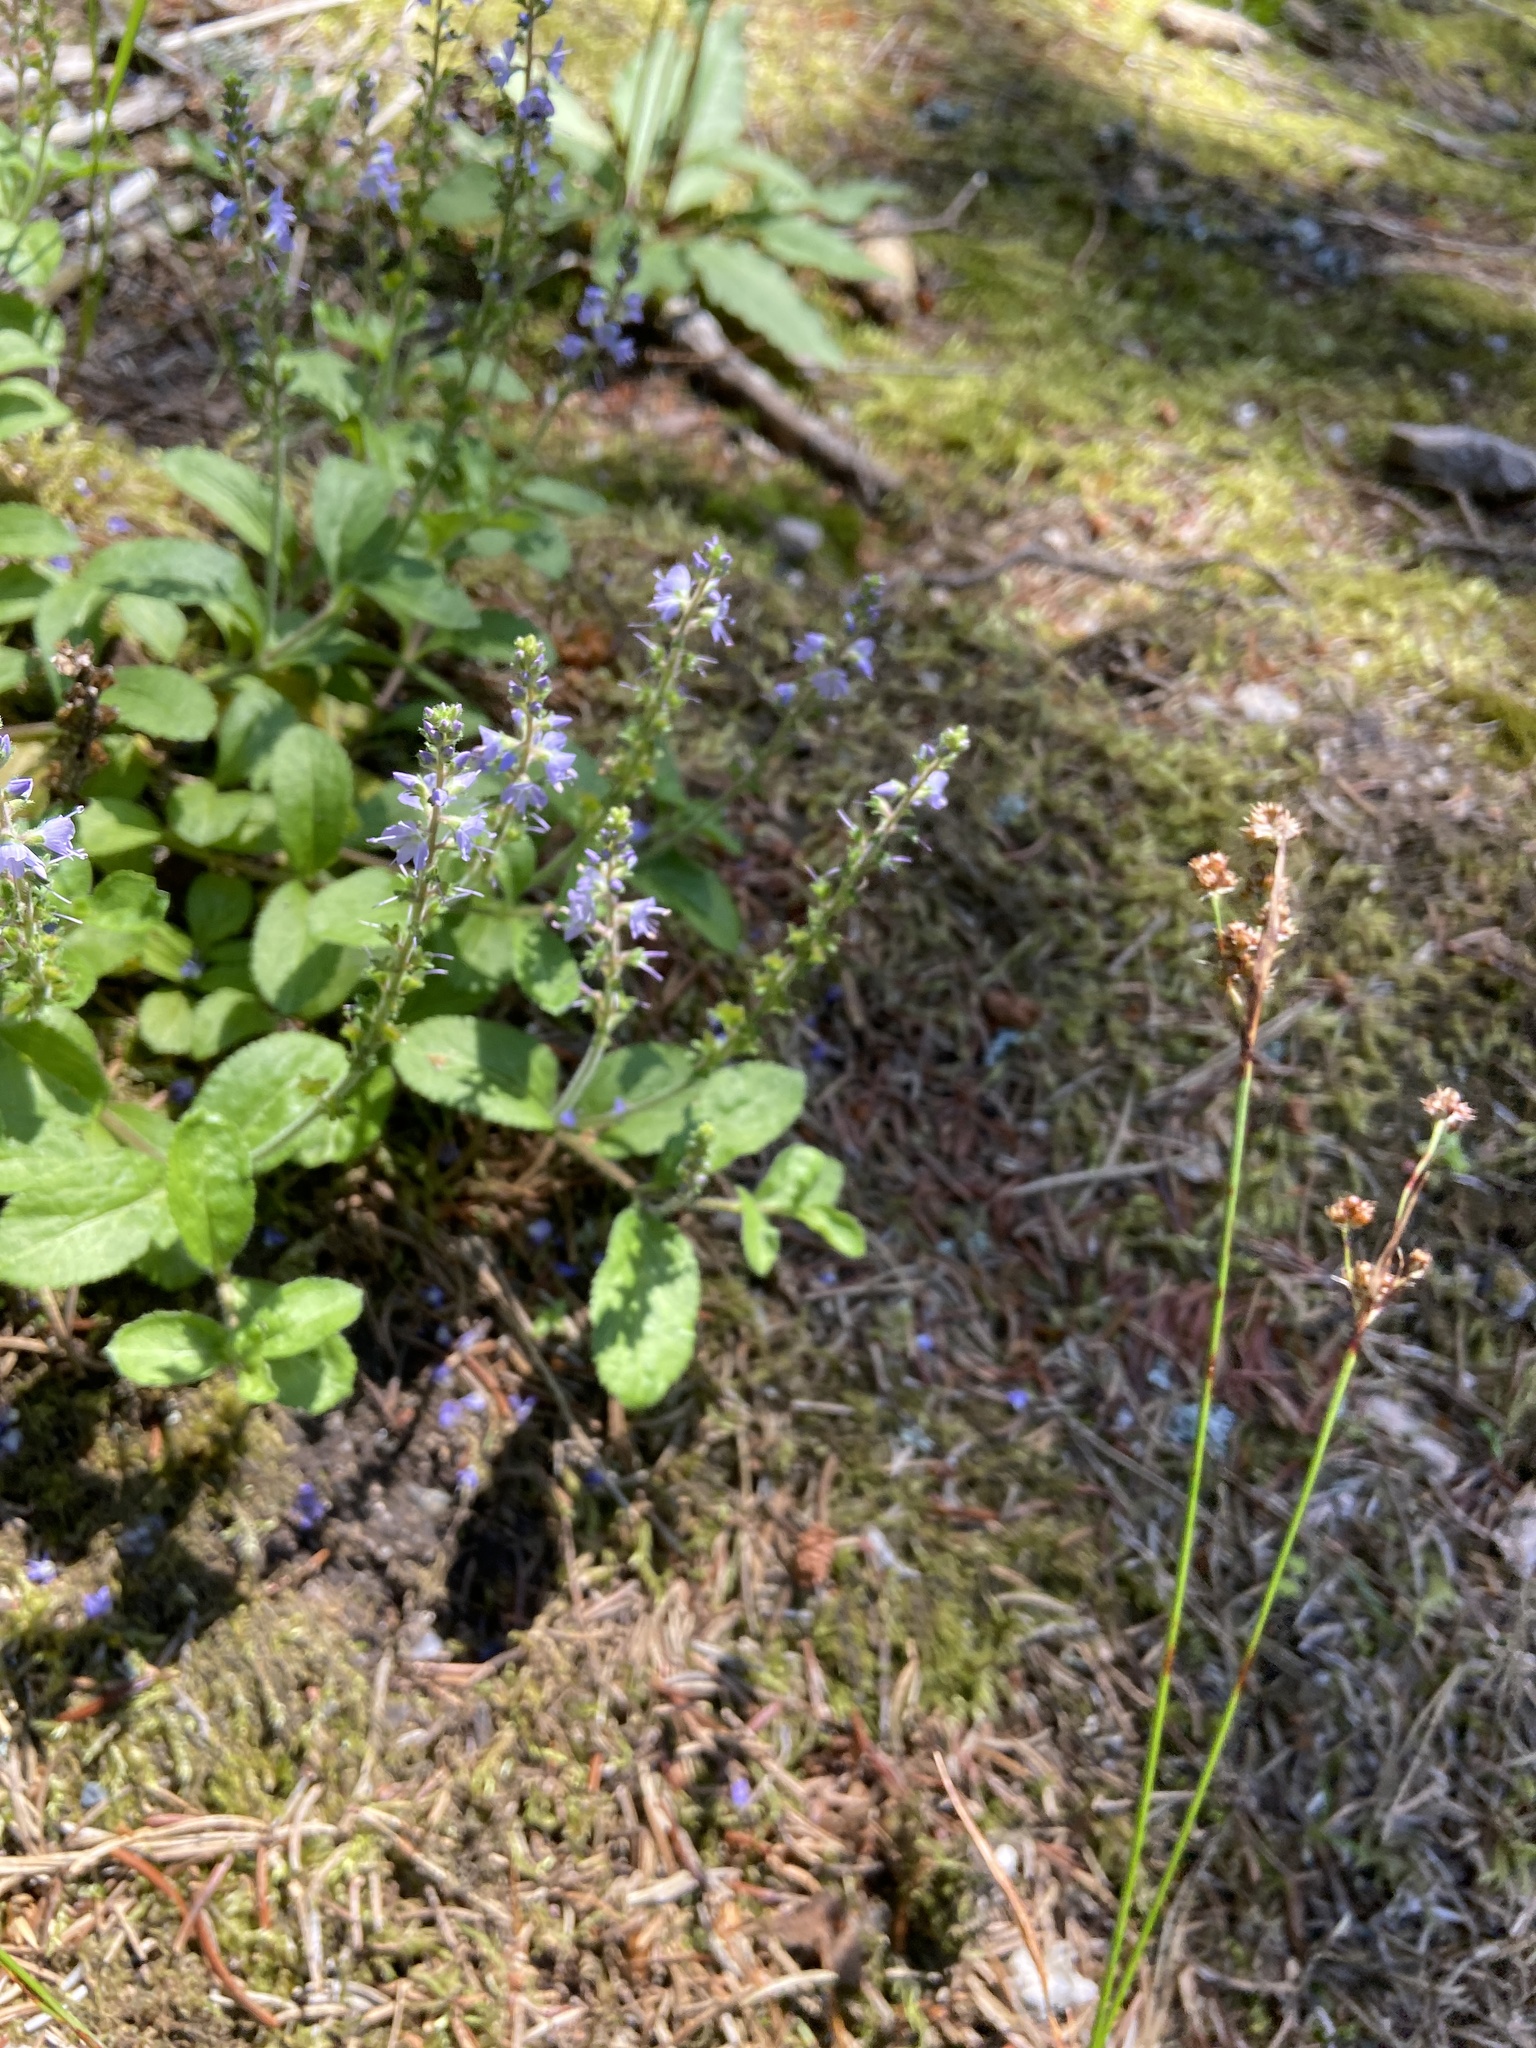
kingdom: Plantae
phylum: Tracheophyta
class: Magnoliopsida
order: Lamiales
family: Plantaginaceae
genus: Veronica
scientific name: Veronica officinalis
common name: Common speedwell
